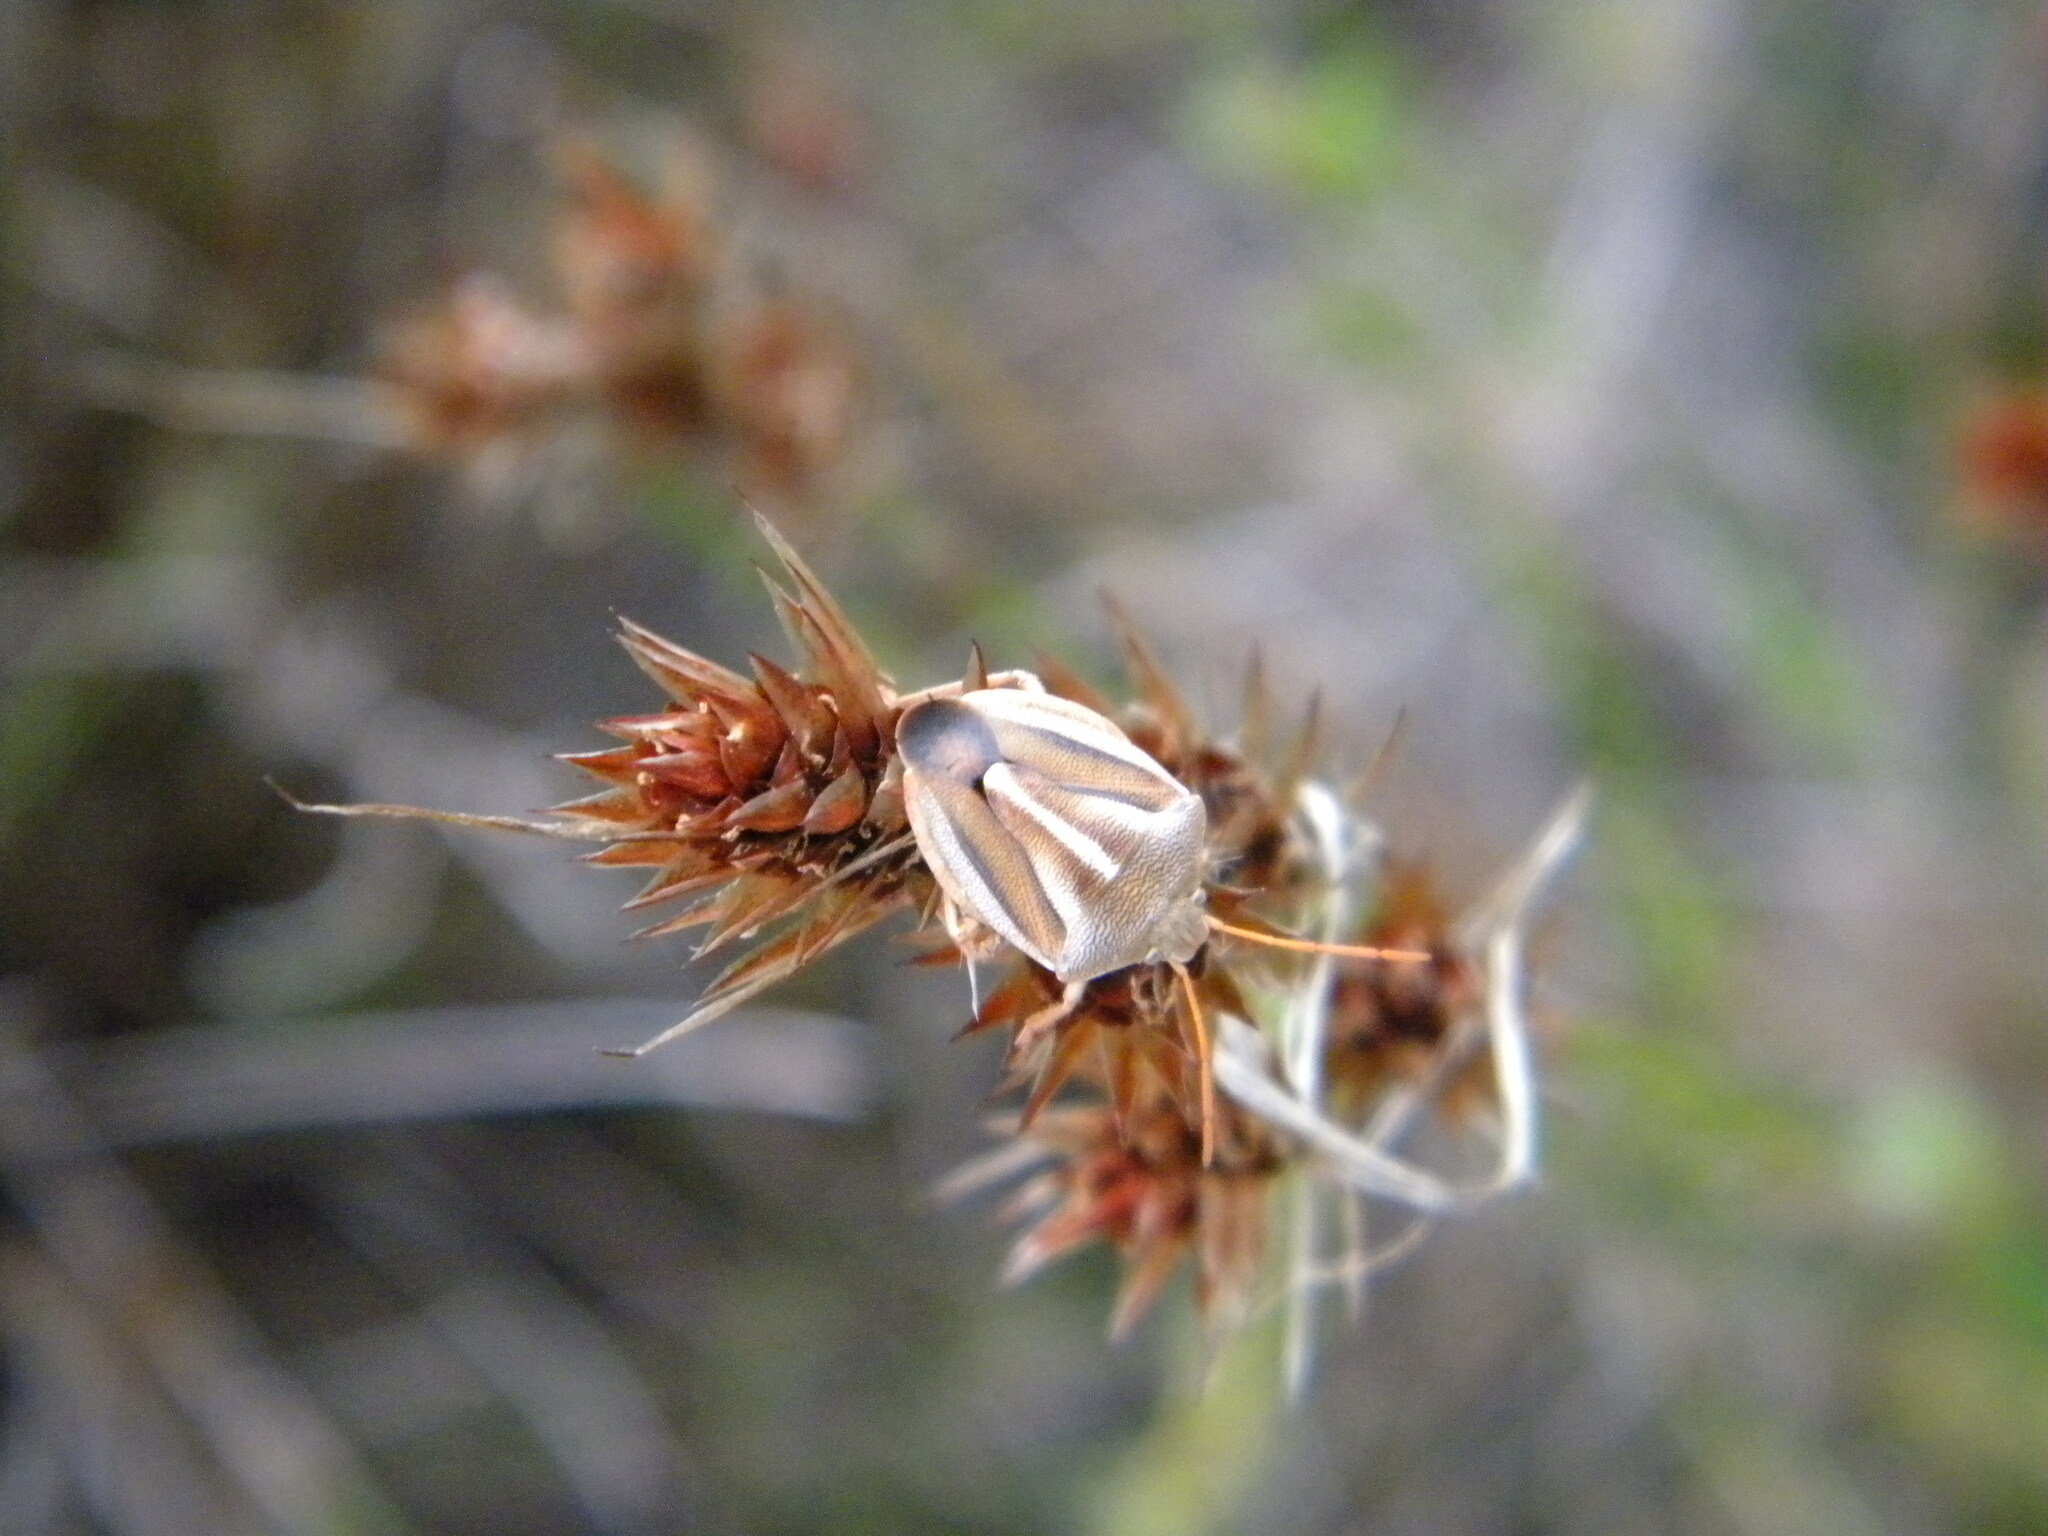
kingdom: Animalia
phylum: Arthropoda
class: Insecta
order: Hemiptera
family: Pentatomidae
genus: Theloris
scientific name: Theloris costata
